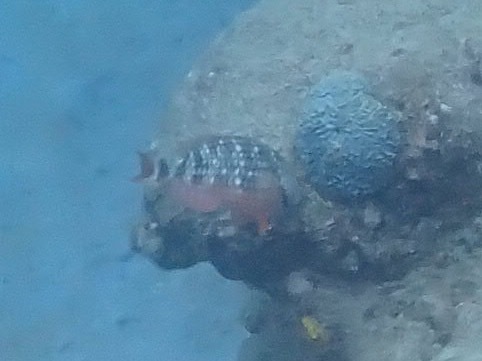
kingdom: Animalia
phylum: Chordata
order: Perciformes
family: Scaridae
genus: Sparisoma
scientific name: Sparisoma viride
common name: Stoplight parrotfish
